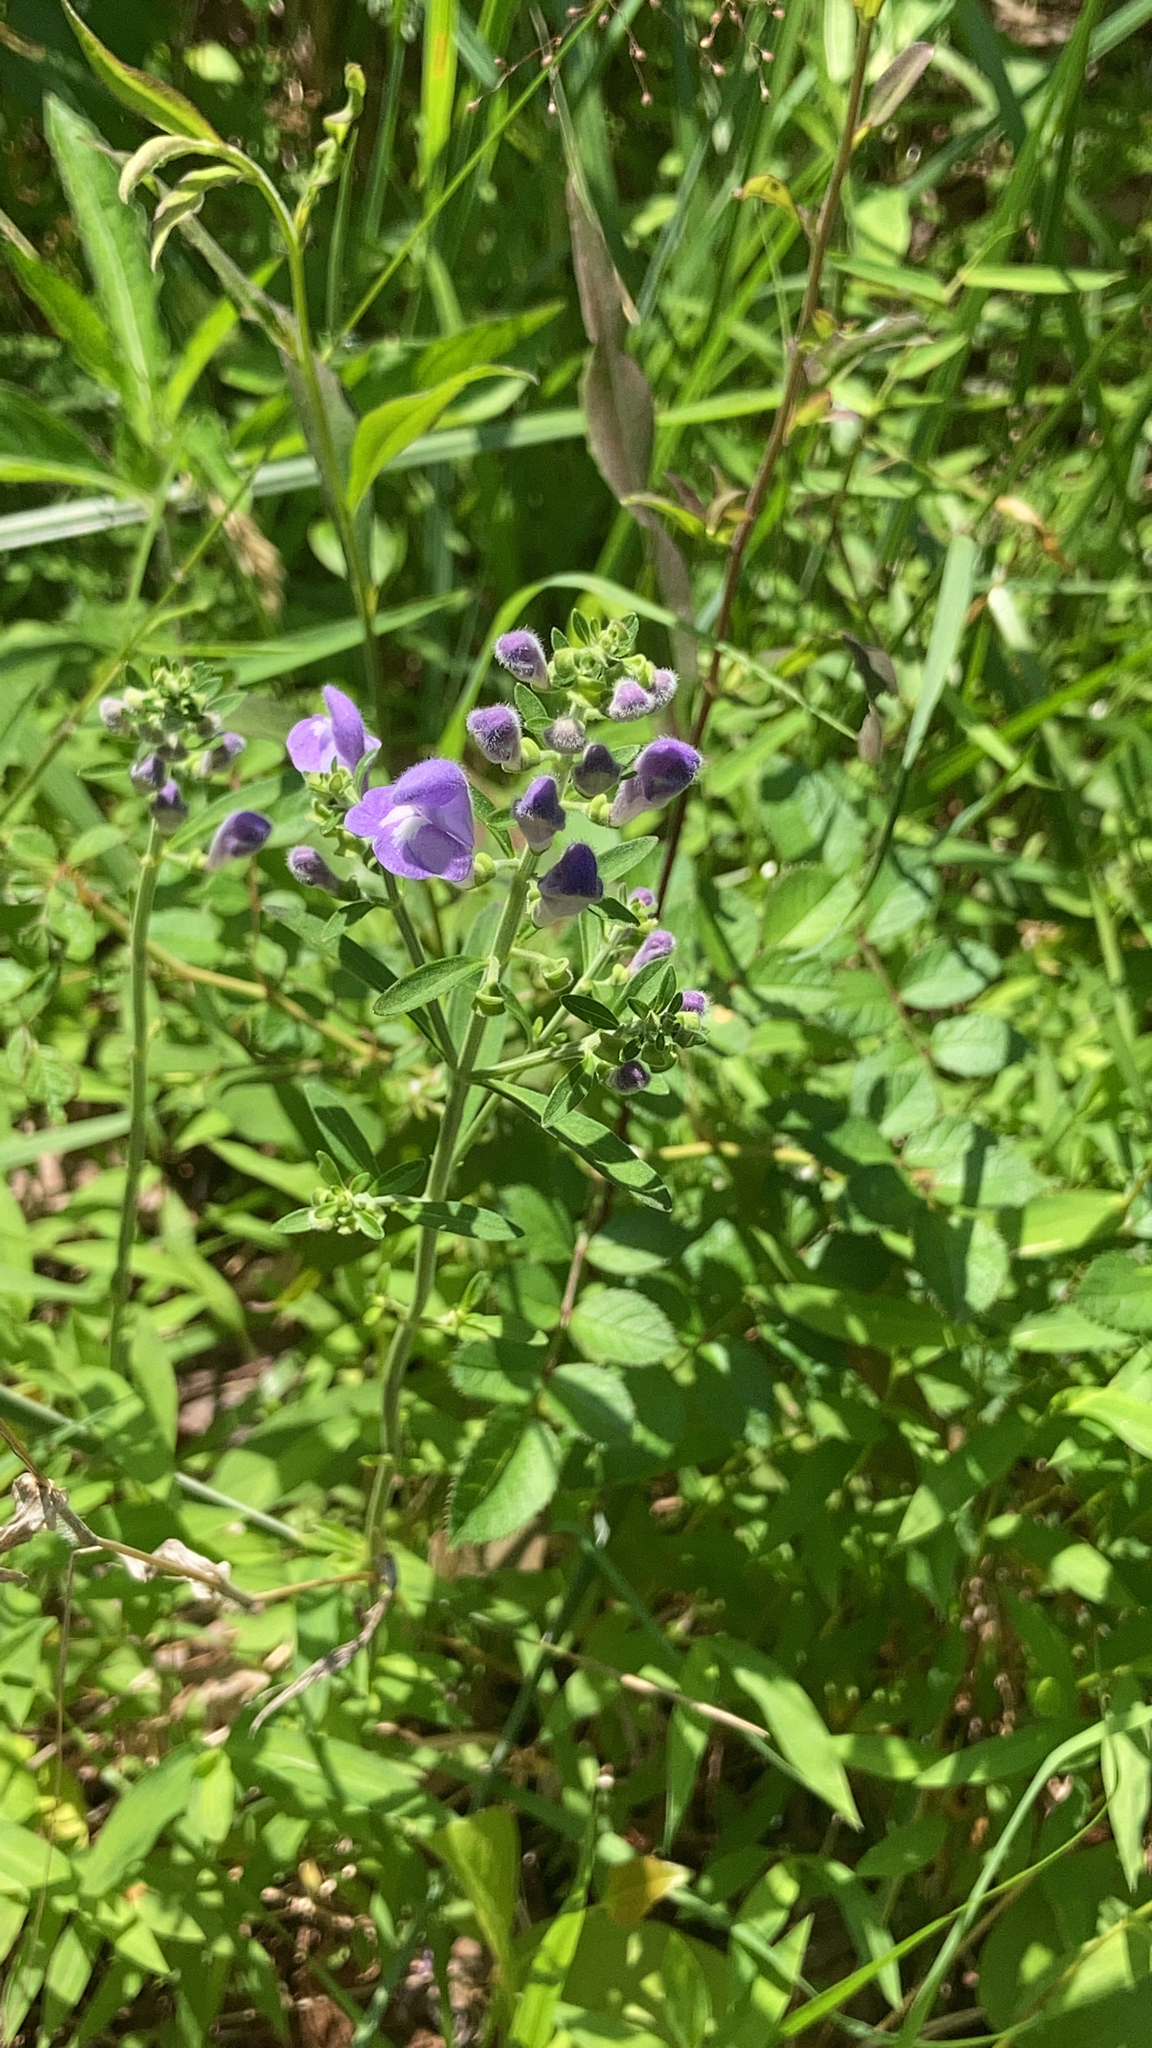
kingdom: Plantae
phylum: Tracheophyta
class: Magnoliopsida
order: Lamiales
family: Lamiaceae
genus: Scutellaria
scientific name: Scutellaria integrifolia
